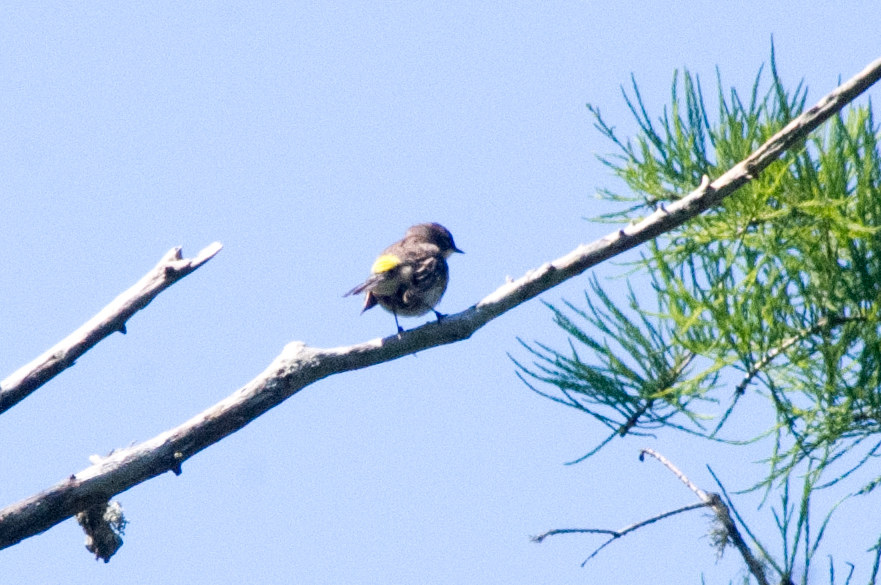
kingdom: Animalia
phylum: Chordata
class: Aves
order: Passeriformes
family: Parulidae
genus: Setophaga
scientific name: Setophaga coronata
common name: Myrtle warbler
